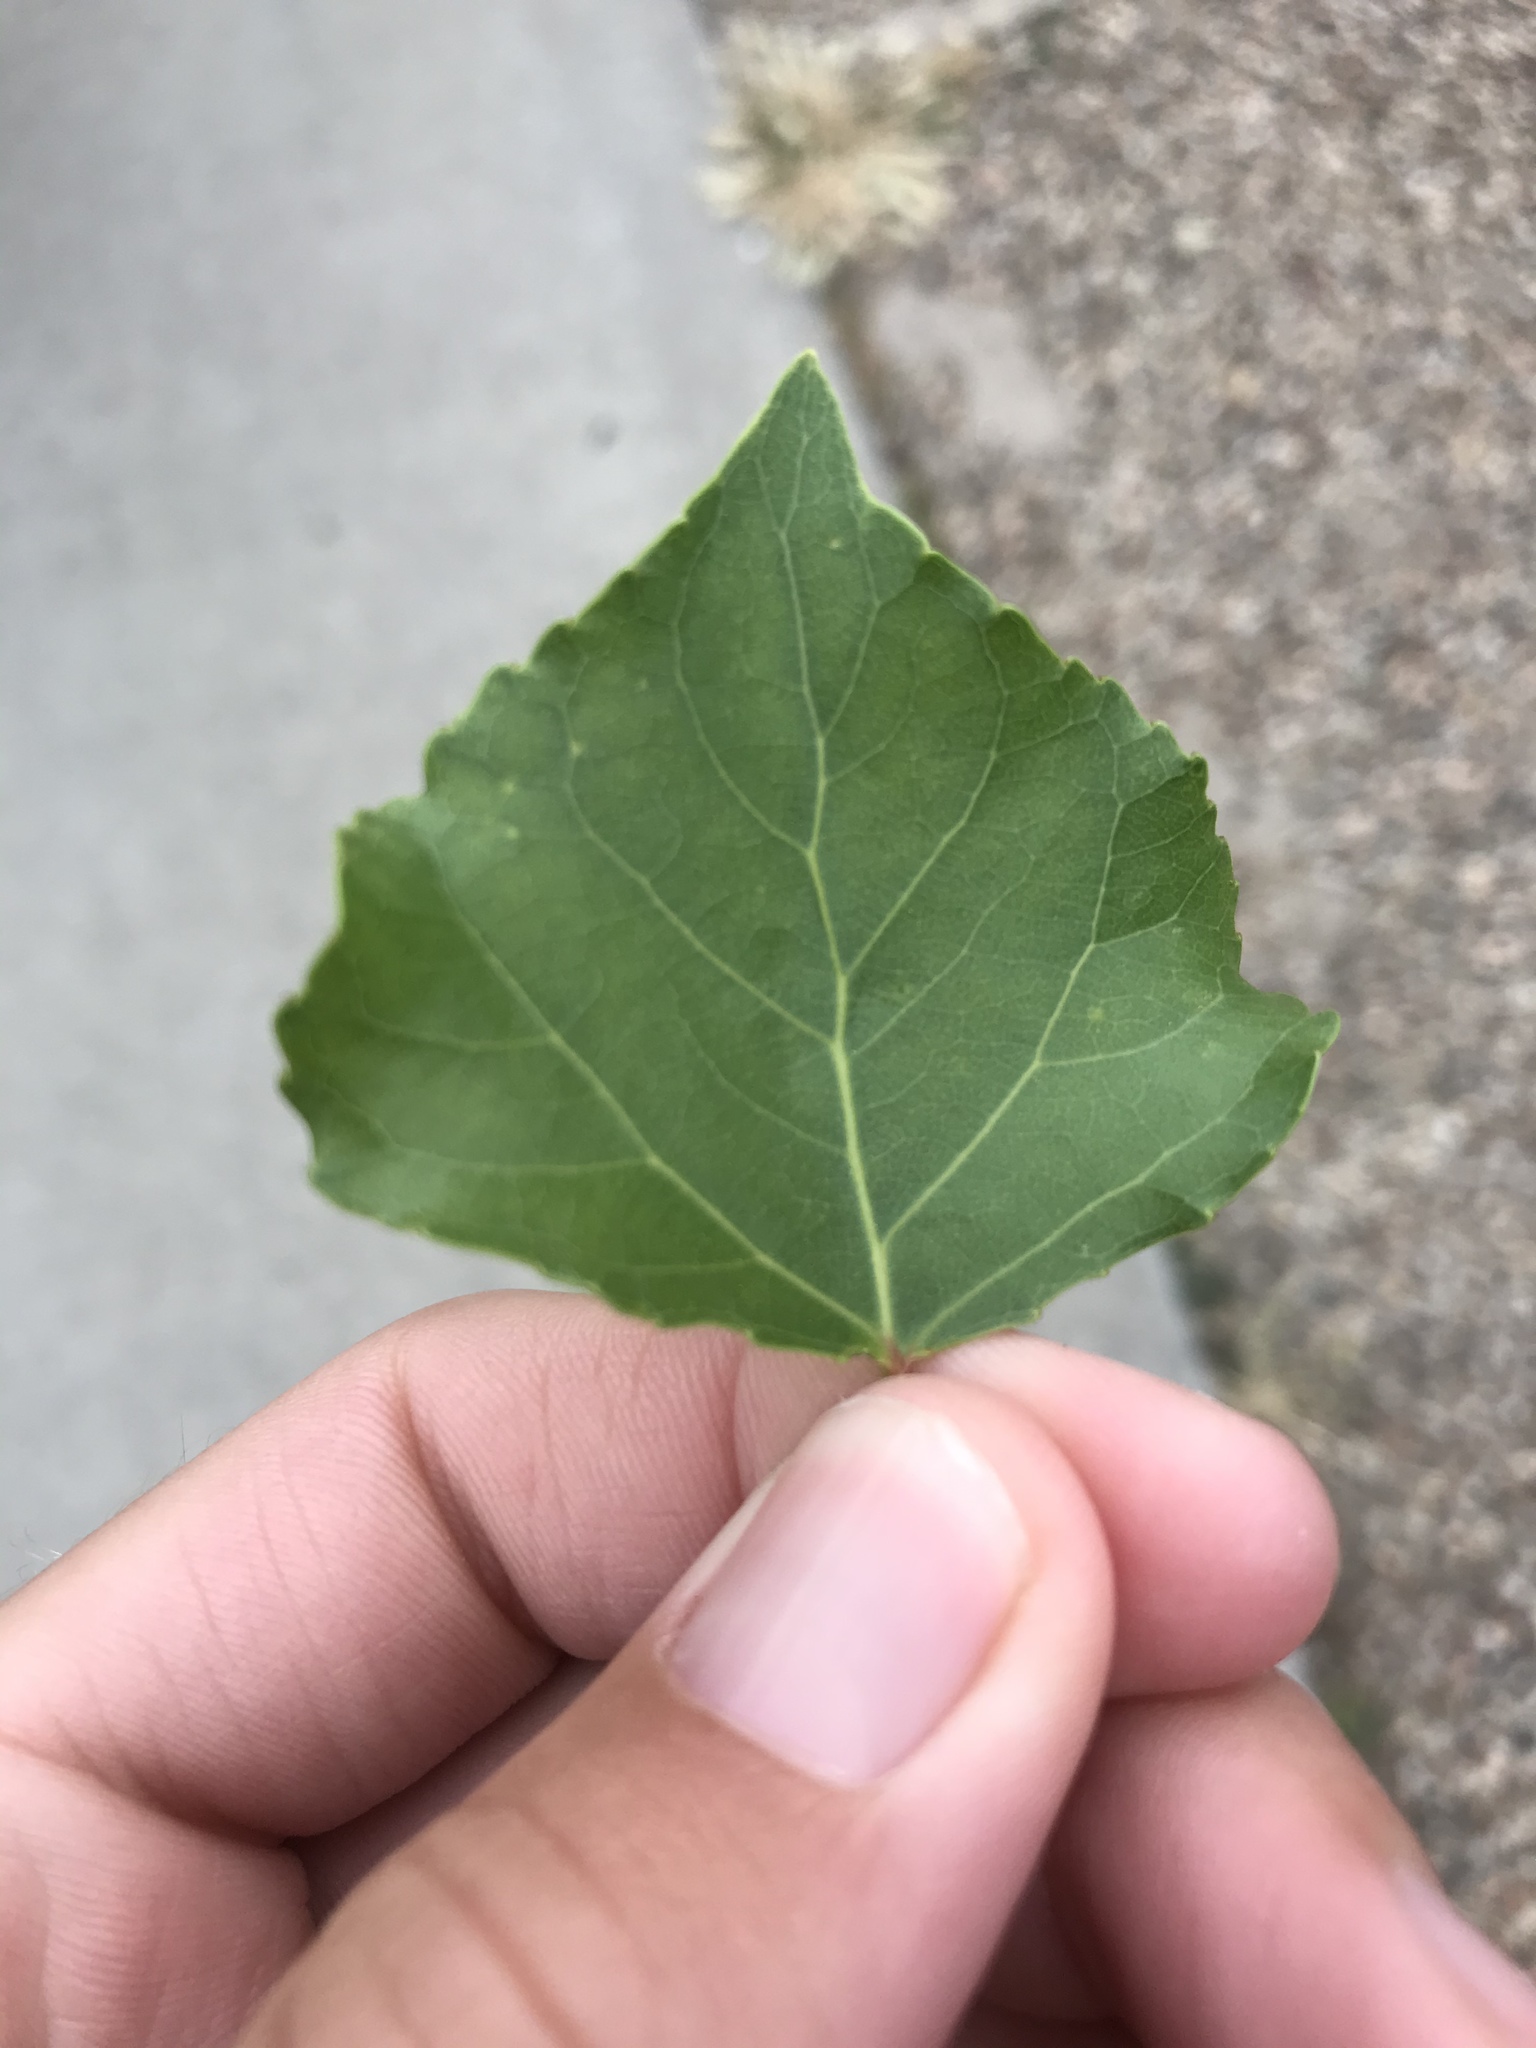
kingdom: Plantae
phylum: Tracheophyta
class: Magnoliopsida
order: Malpighiales
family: Salicaceae
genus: Populus
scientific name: Populus nigra
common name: Black poplar
